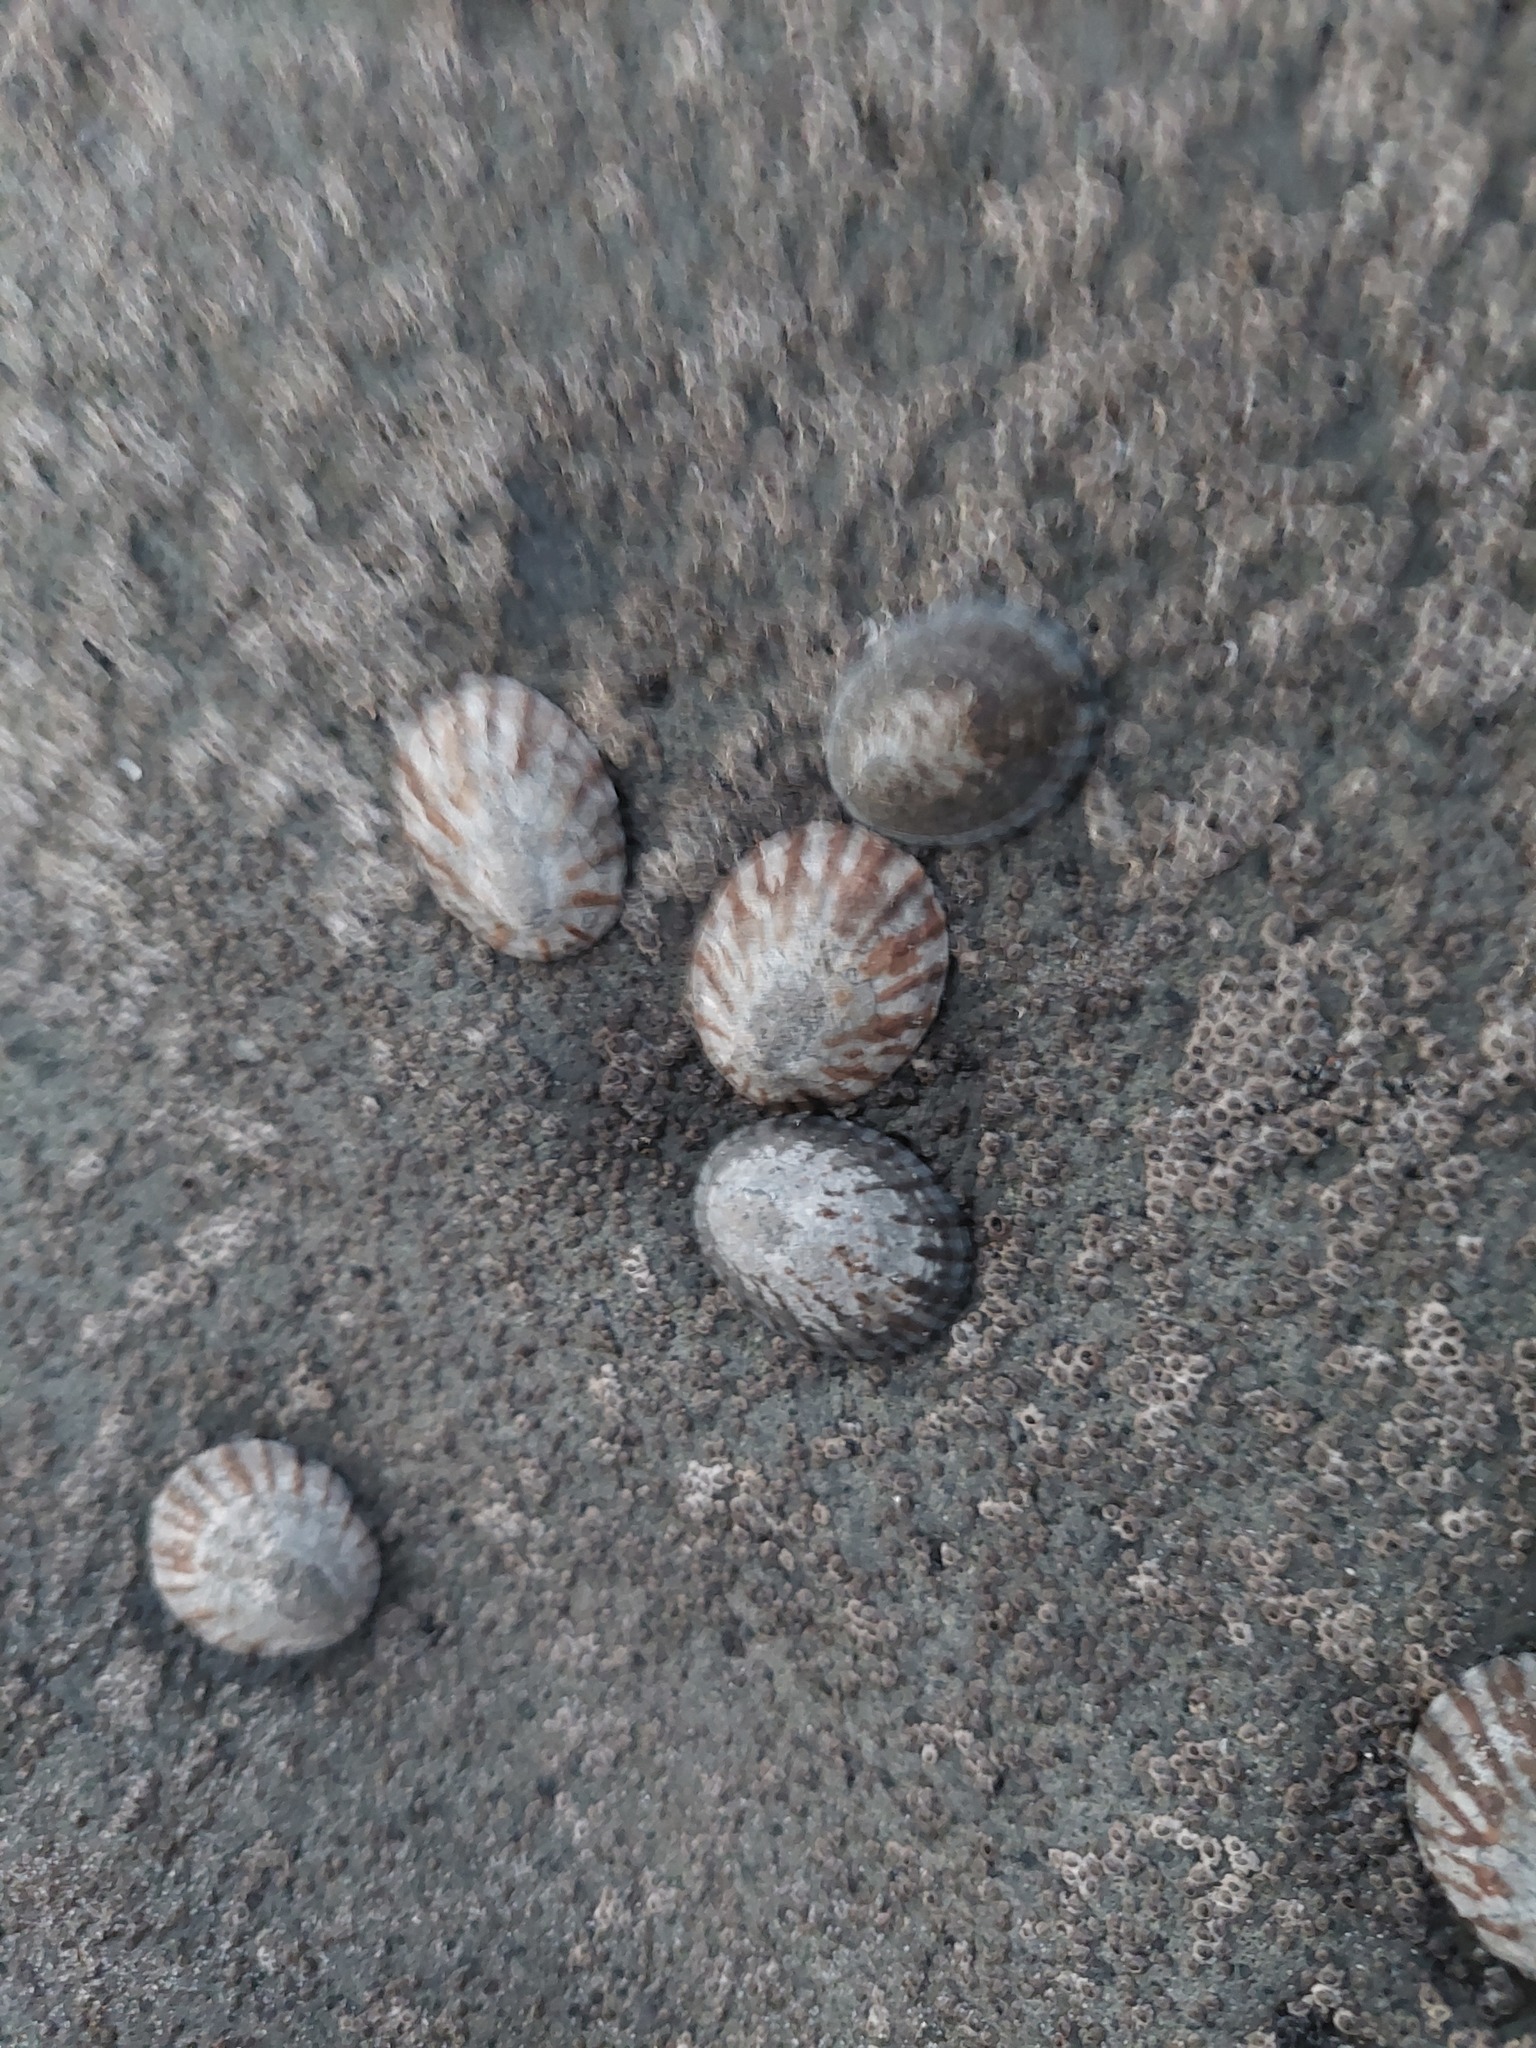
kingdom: Animalia
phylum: Mollusca
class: Gastropoda
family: Nacellidae
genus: Cellana
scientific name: Cellana radians
